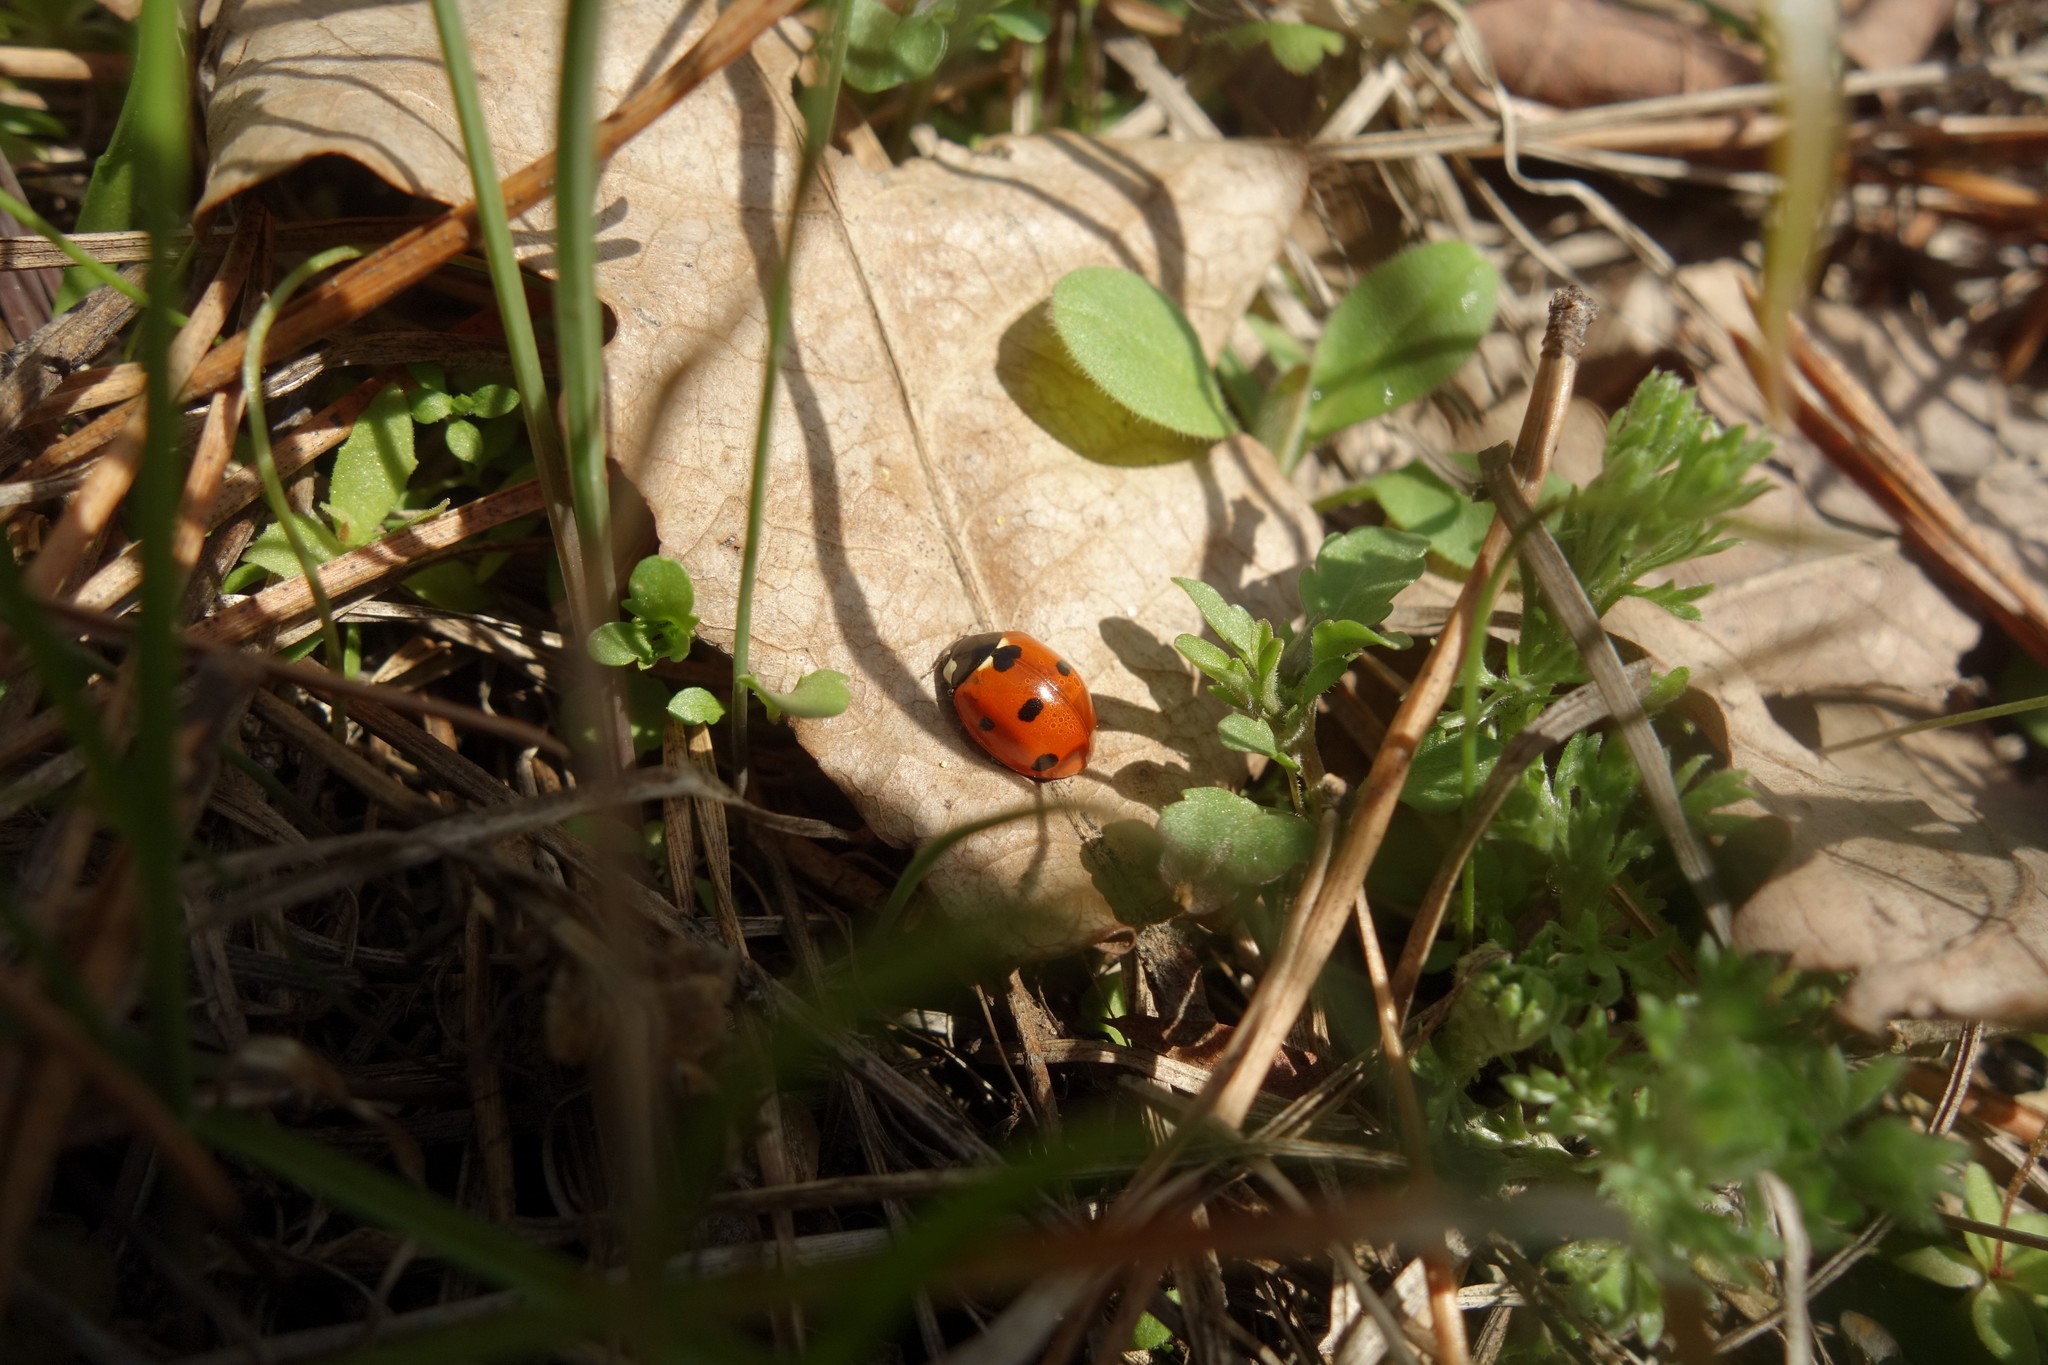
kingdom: Animalia
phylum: Arthropoda
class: Insecta
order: Coleoptera
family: Coccinellidae
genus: Coccinella
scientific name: Coccinella septempunctata
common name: Sevenspotted lady beetle
